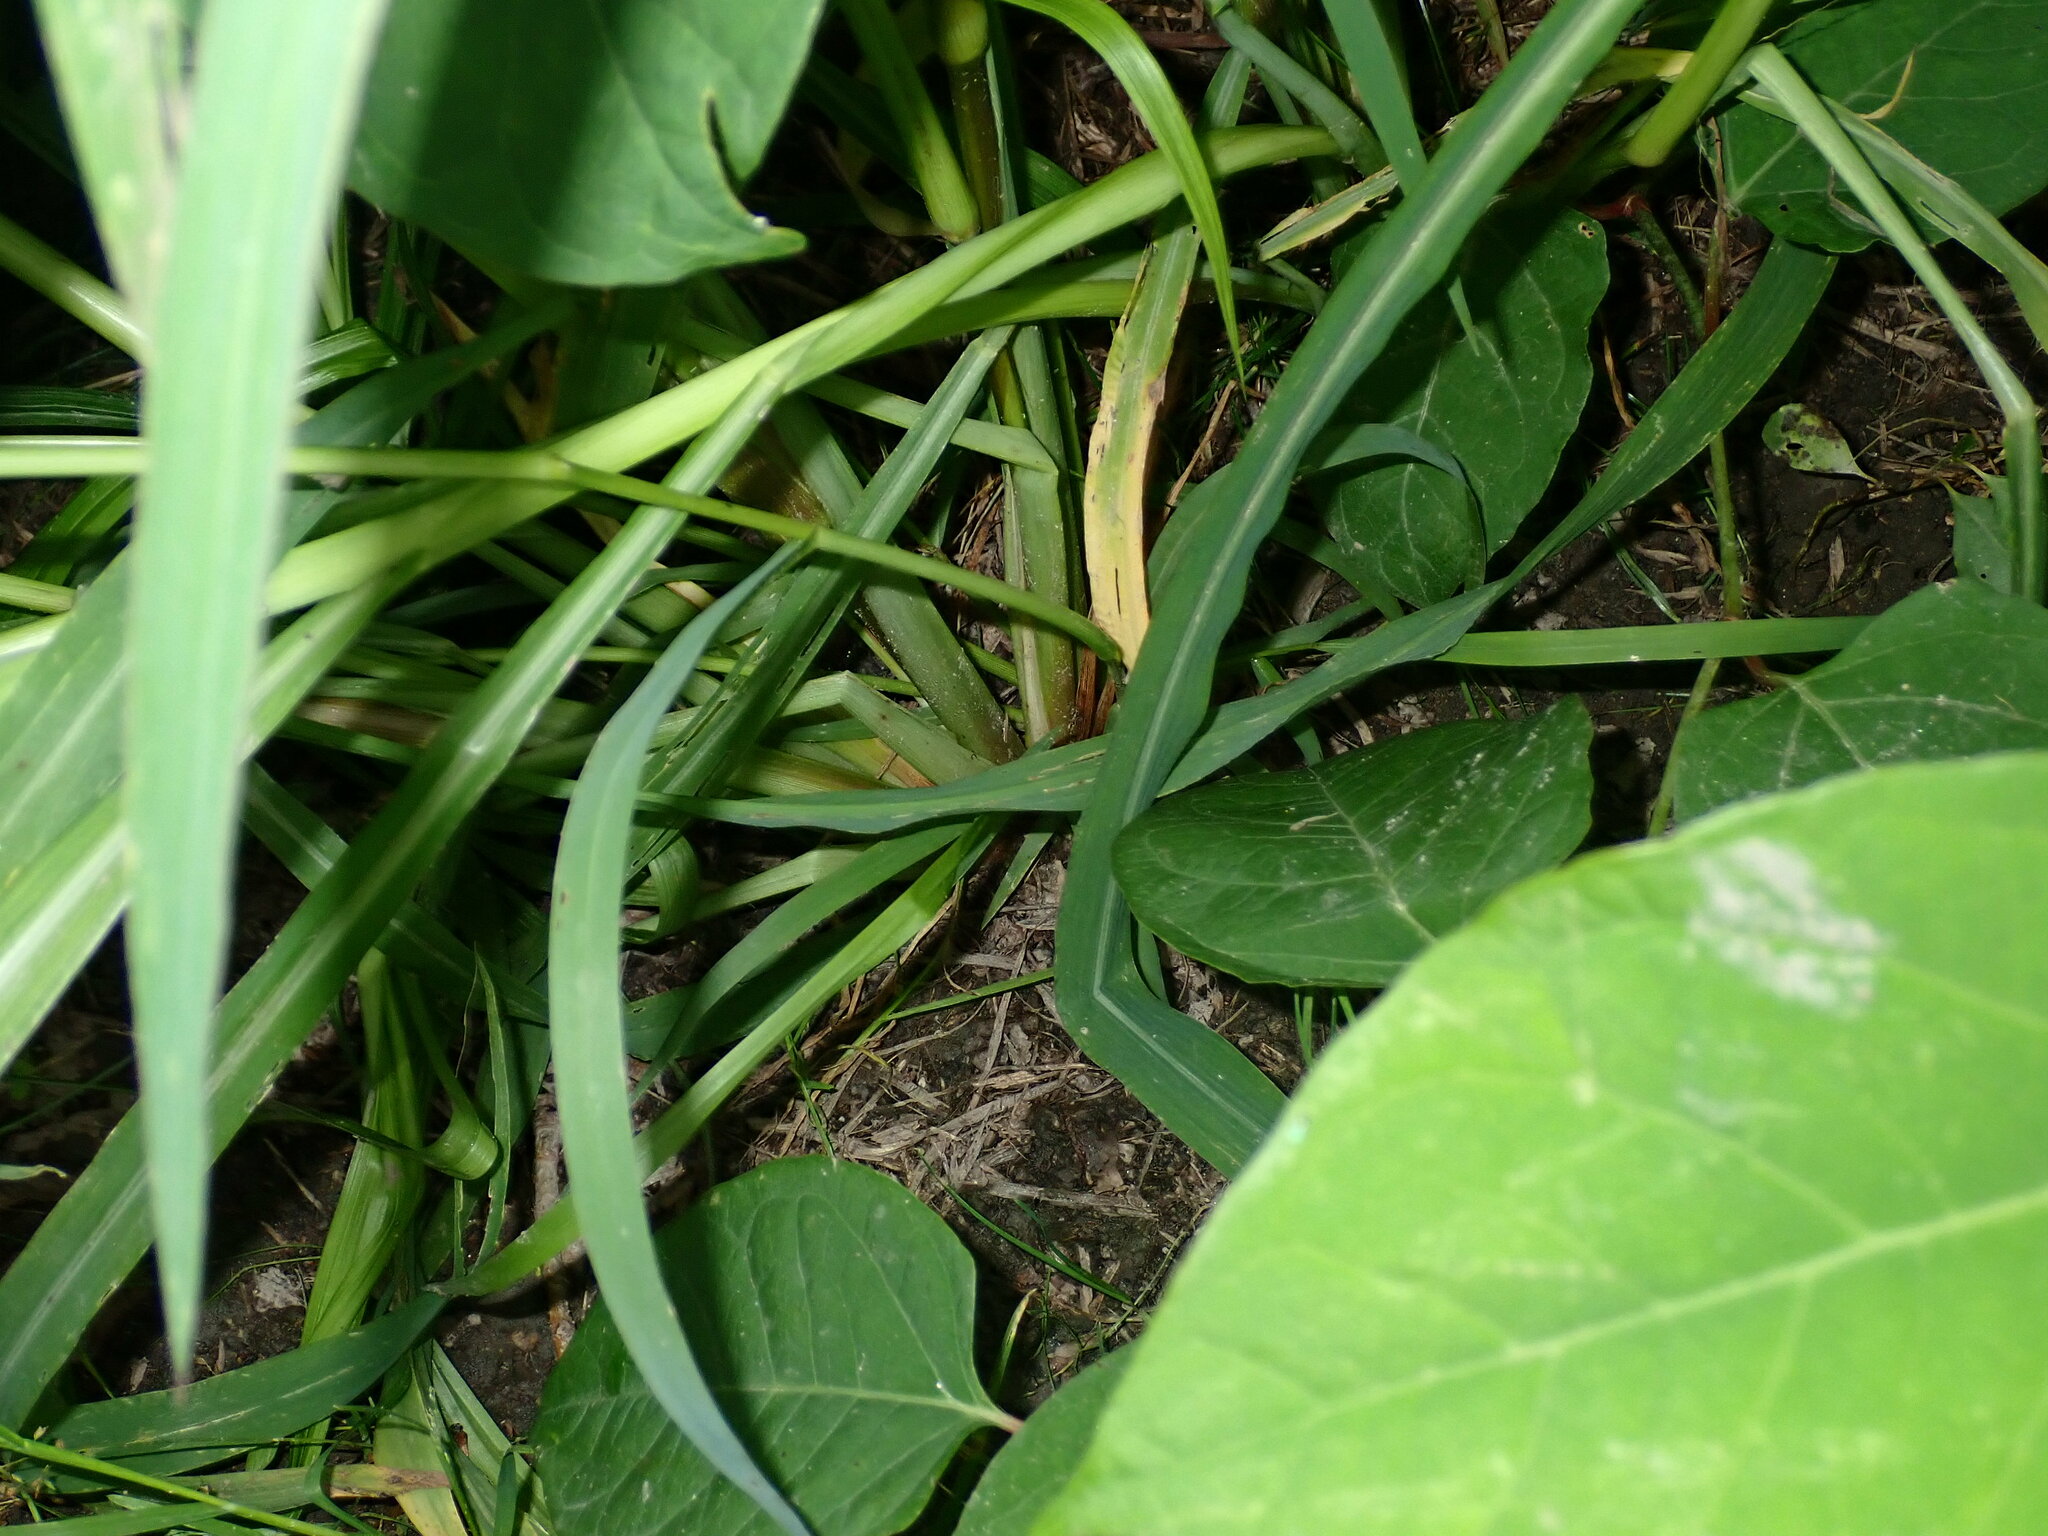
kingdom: Plantae
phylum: Tracheophyta
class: Liliopsida
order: Poales
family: Poaceae
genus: Echinochloa
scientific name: Echinochloa crus-galli
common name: Cockspur
